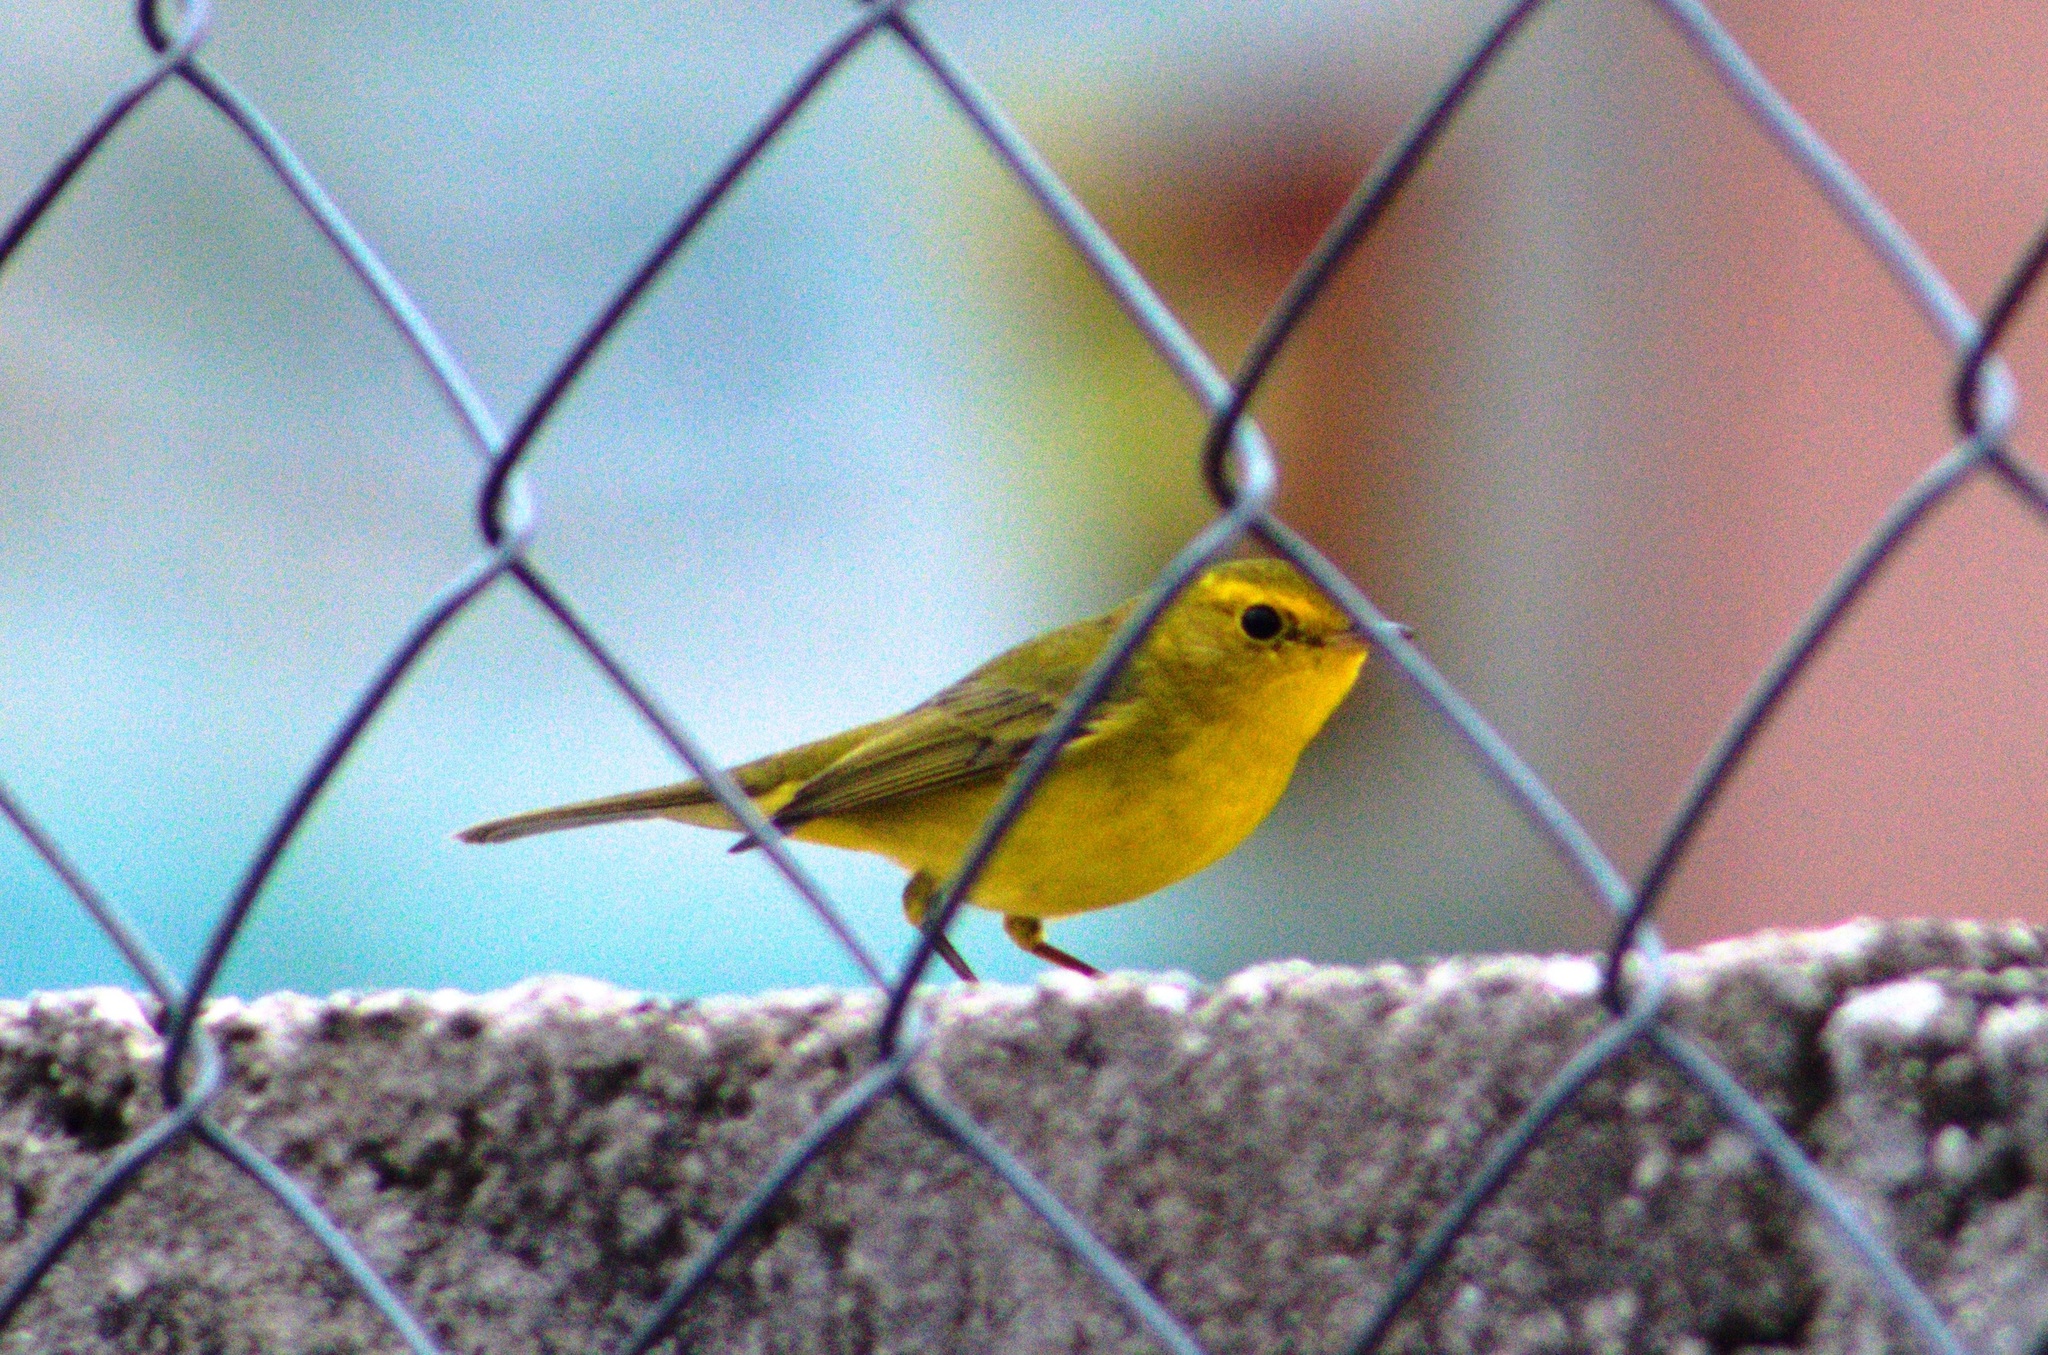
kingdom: Animalia
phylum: Chordata
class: Aves
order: Passeriformes
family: Parulidae
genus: Cardellina
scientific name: Cardellina pusilla
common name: Wilson's warbler
